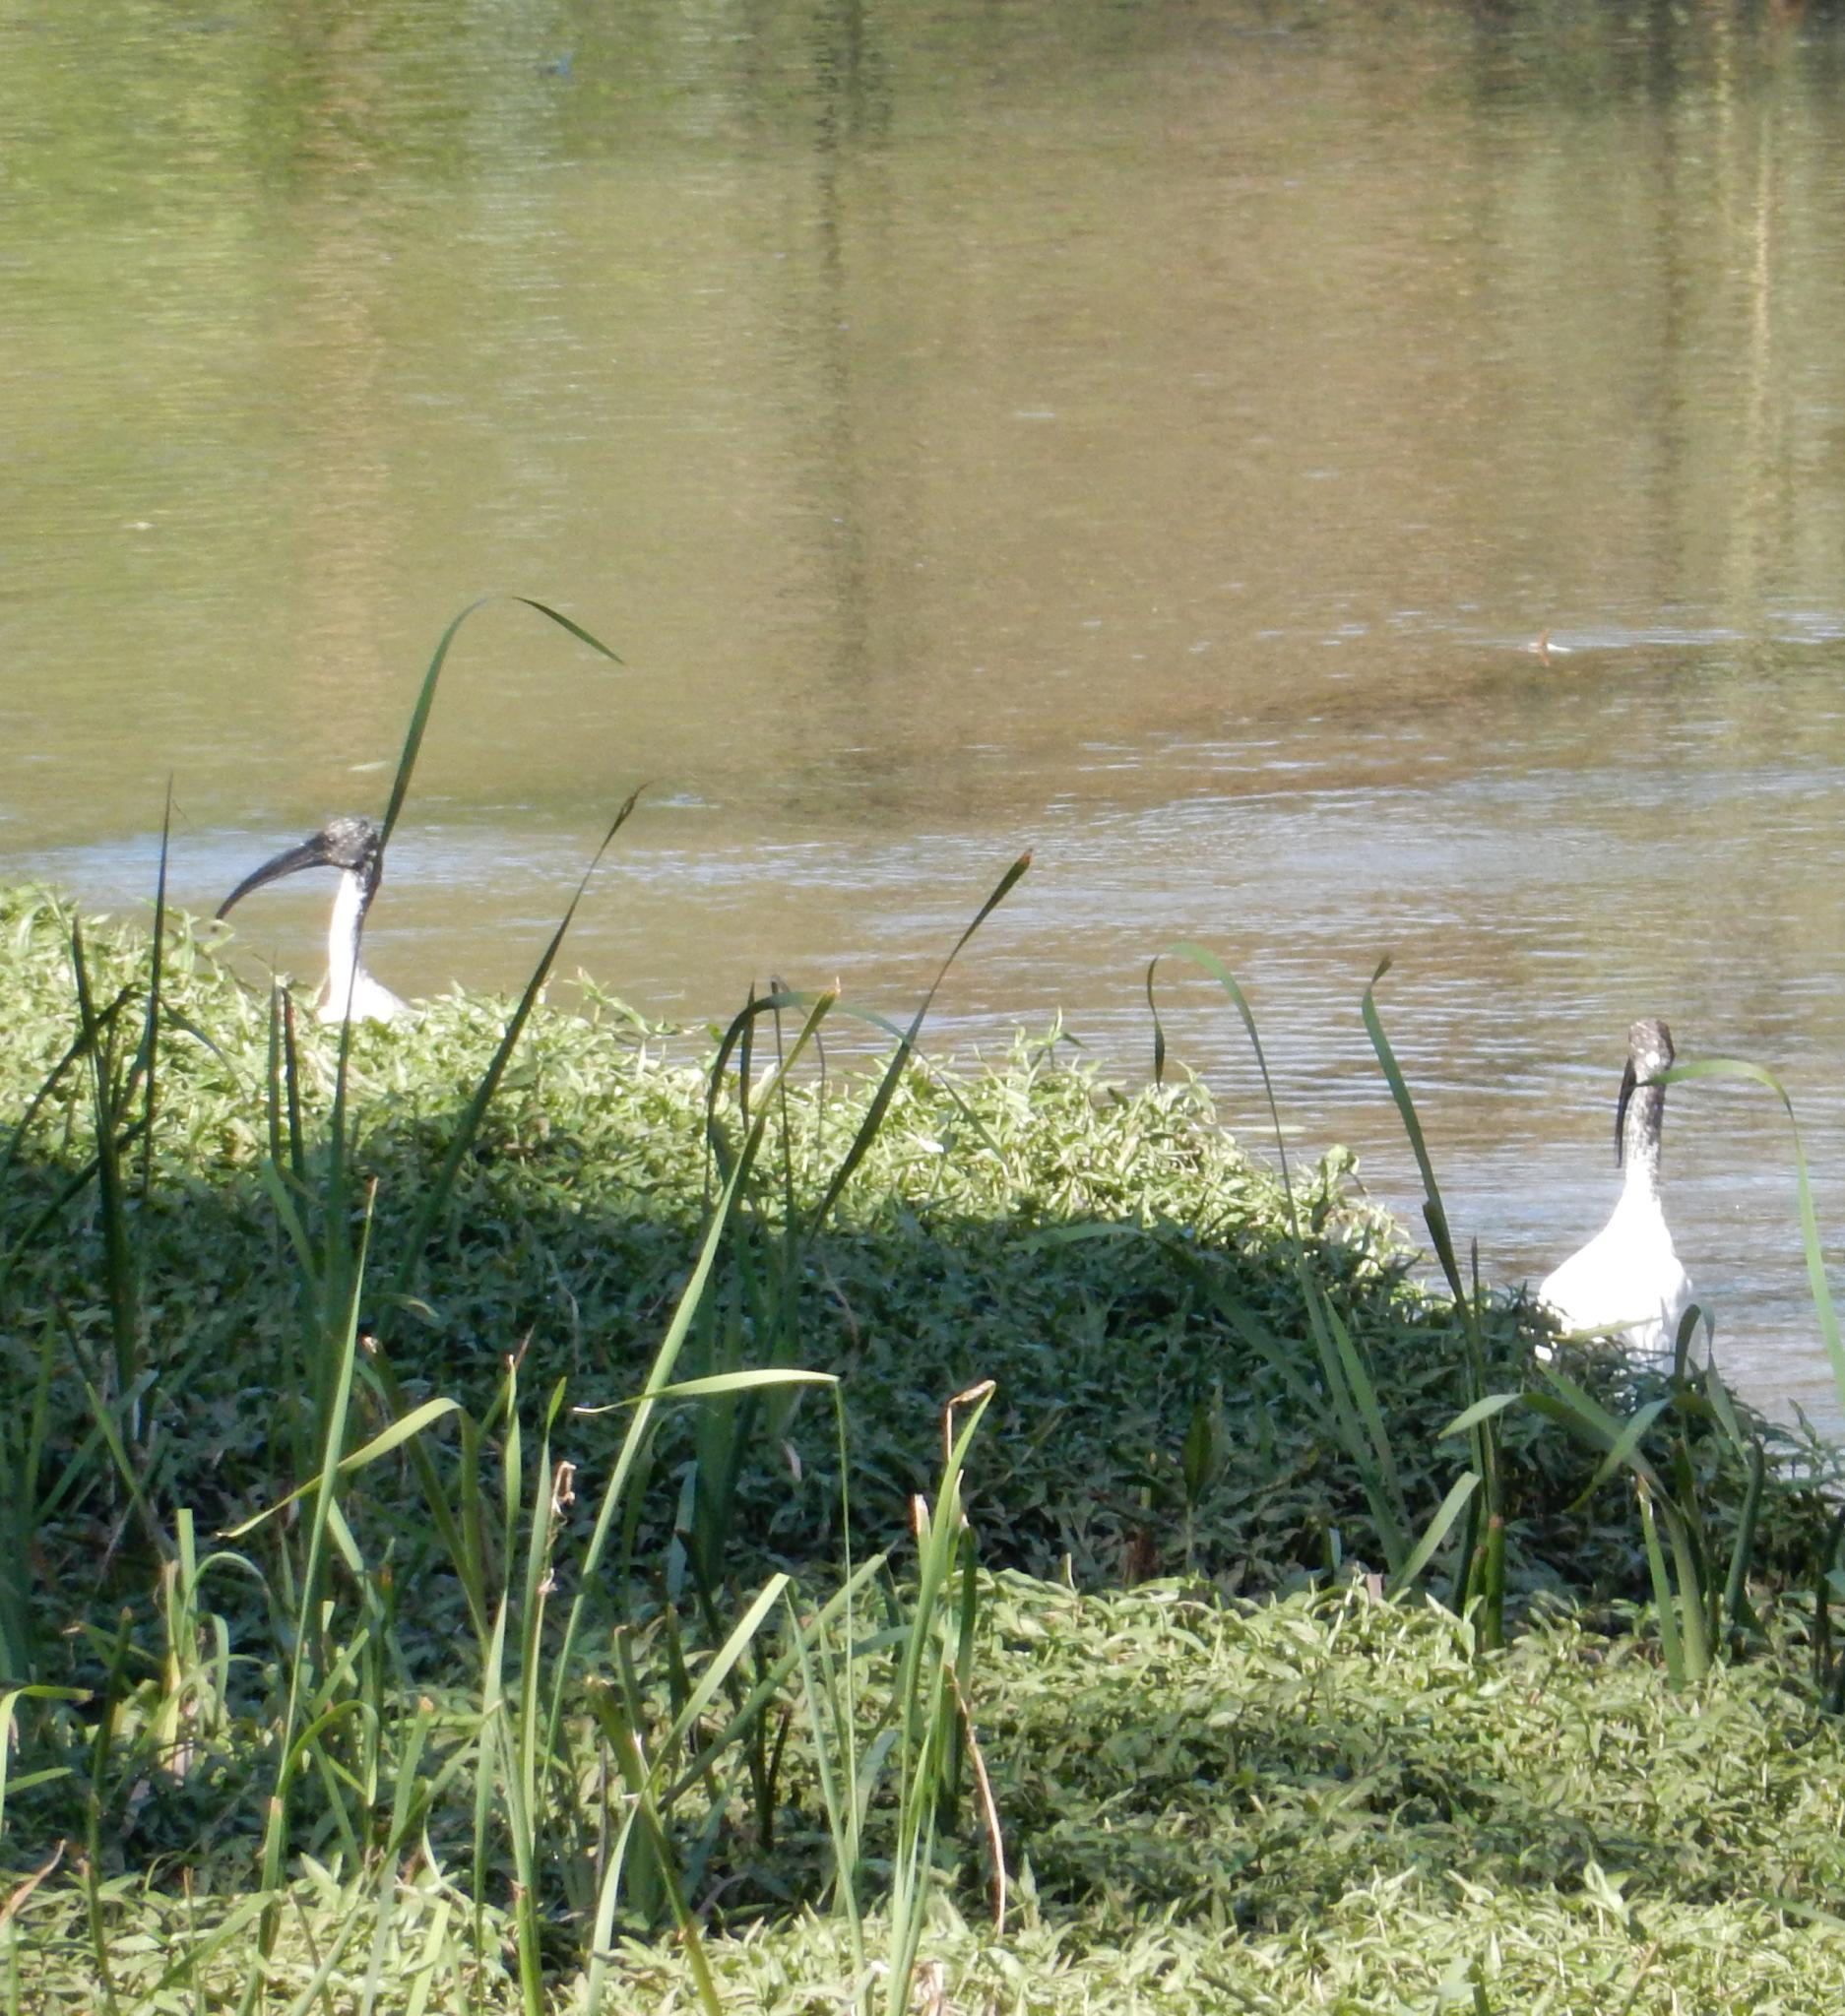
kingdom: Animalia
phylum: Chordata
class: Aves
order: Pelecaniformes
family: Threskiornithidae
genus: Threskiornis
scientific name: Threskiornis aethiopicus
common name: Sacred ibis
